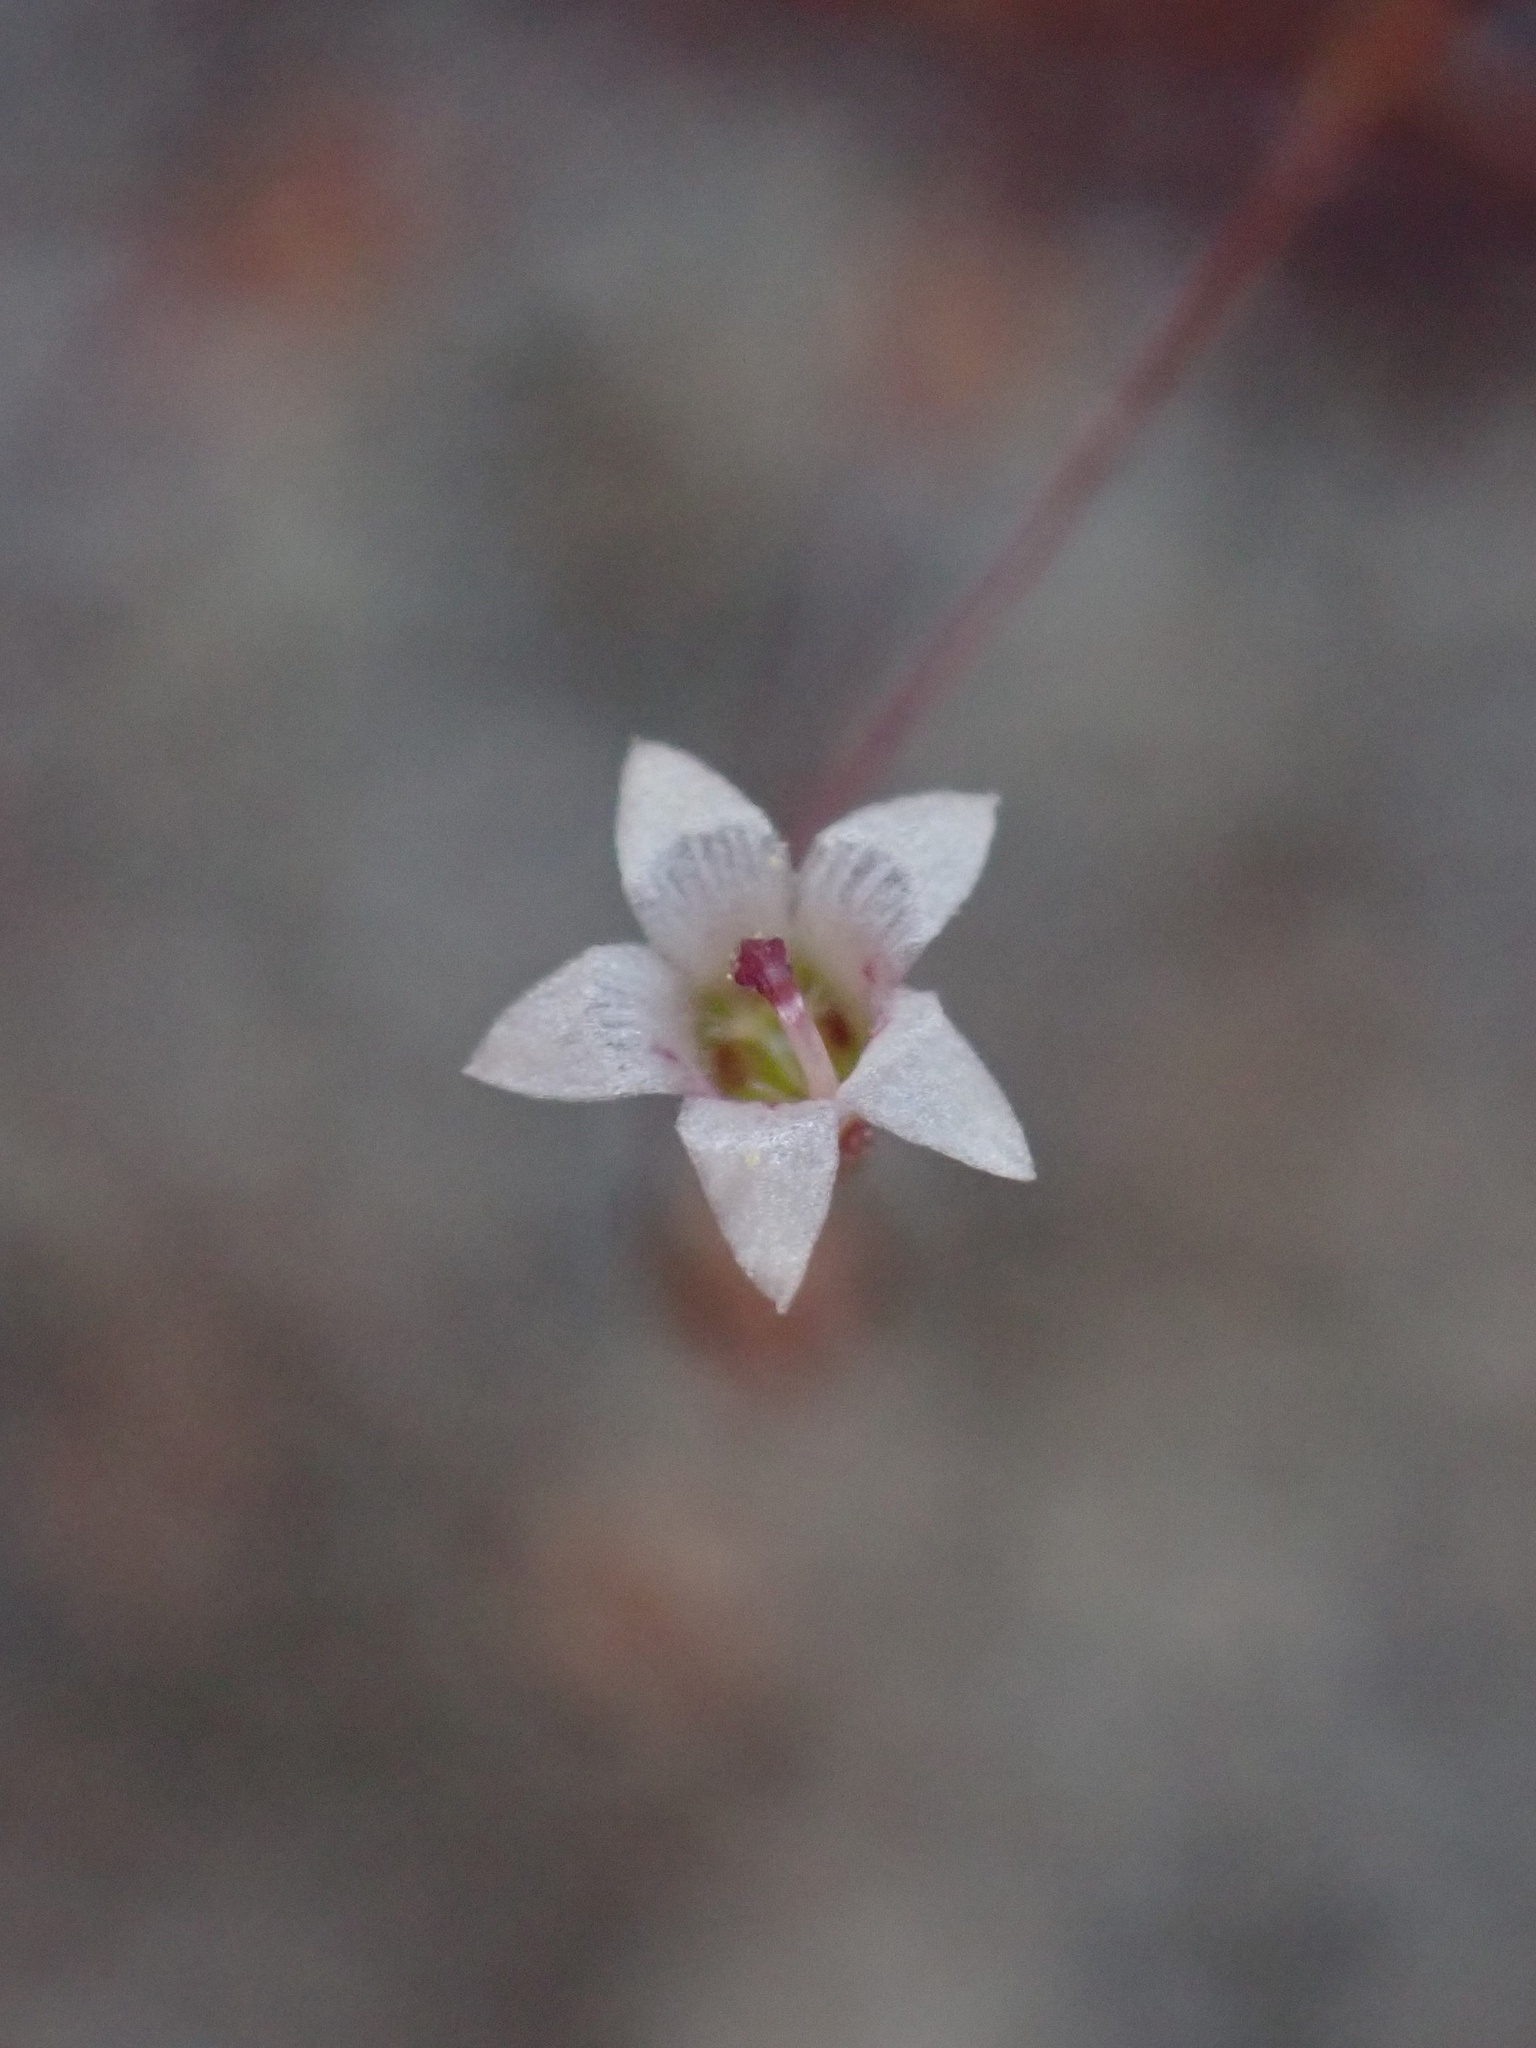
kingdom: Plantae
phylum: Tracheophyta
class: Magnoliopsida
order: Asterales
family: Campanulaceae
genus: Nemacladus
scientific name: Nemacladus pinnatifidus
